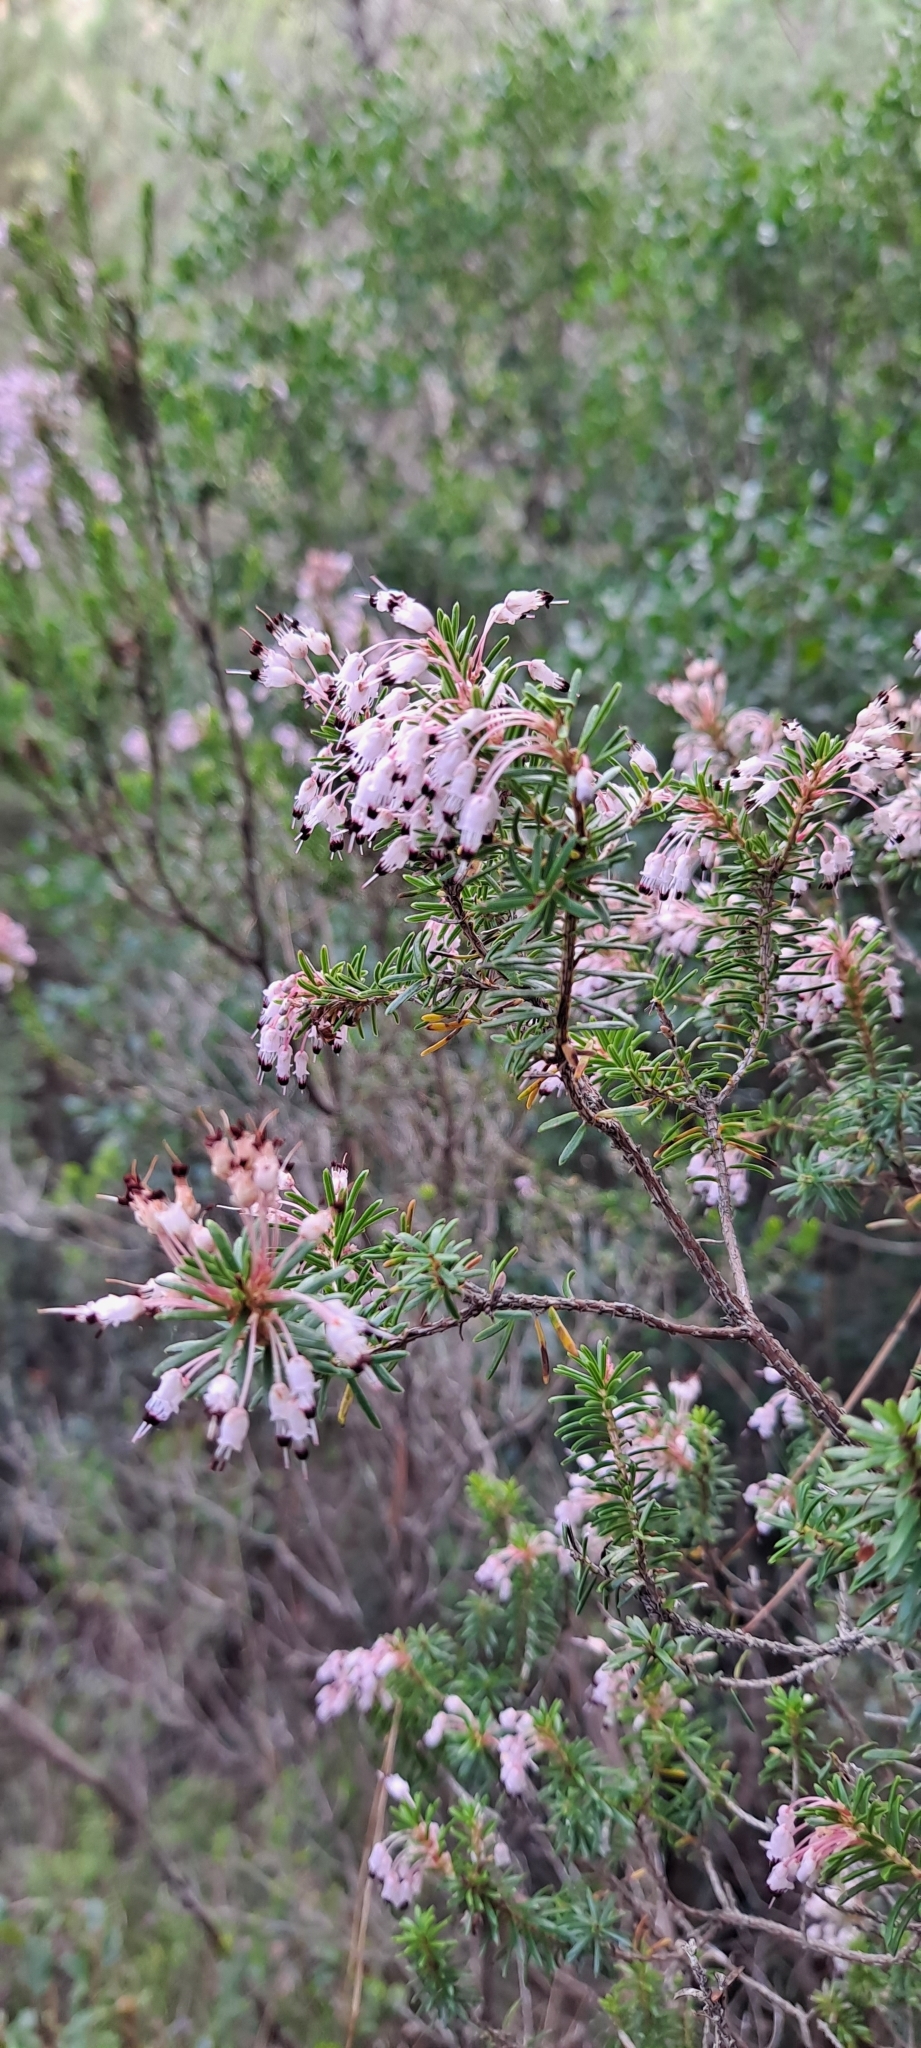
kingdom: Plantae
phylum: Tracheophyta
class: Magnoliopsida
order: Ericales
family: Ericaceae
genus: Erica
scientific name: Erica multiflora
